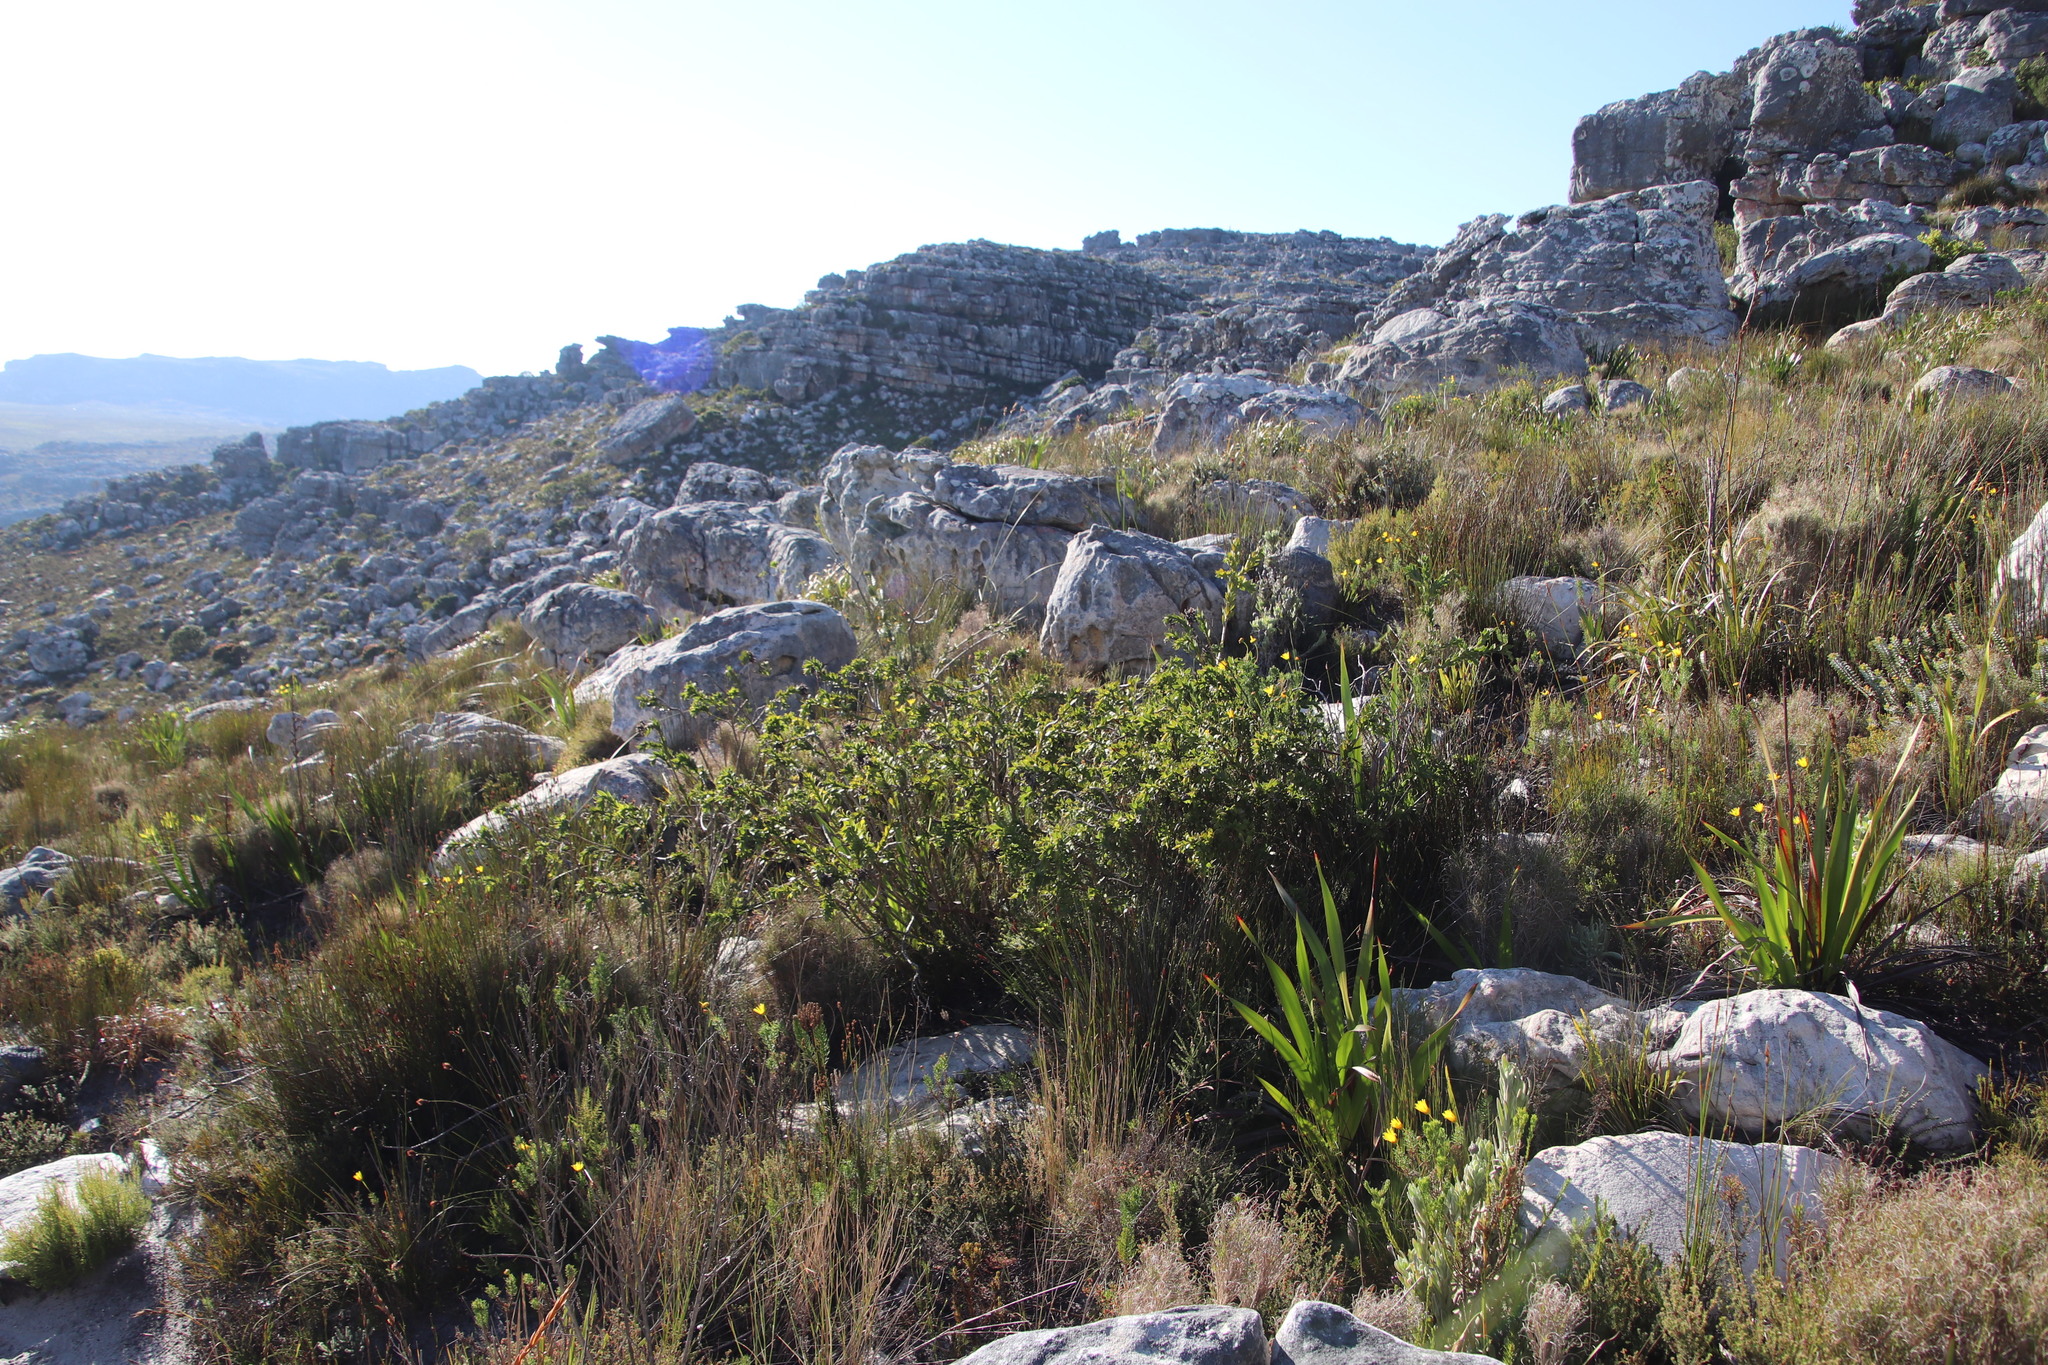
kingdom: Plantae
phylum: Tracheophyta
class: Magnoliopsida
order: Fabales
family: Fabaceae
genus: Liparia
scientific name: Liparia splendens
